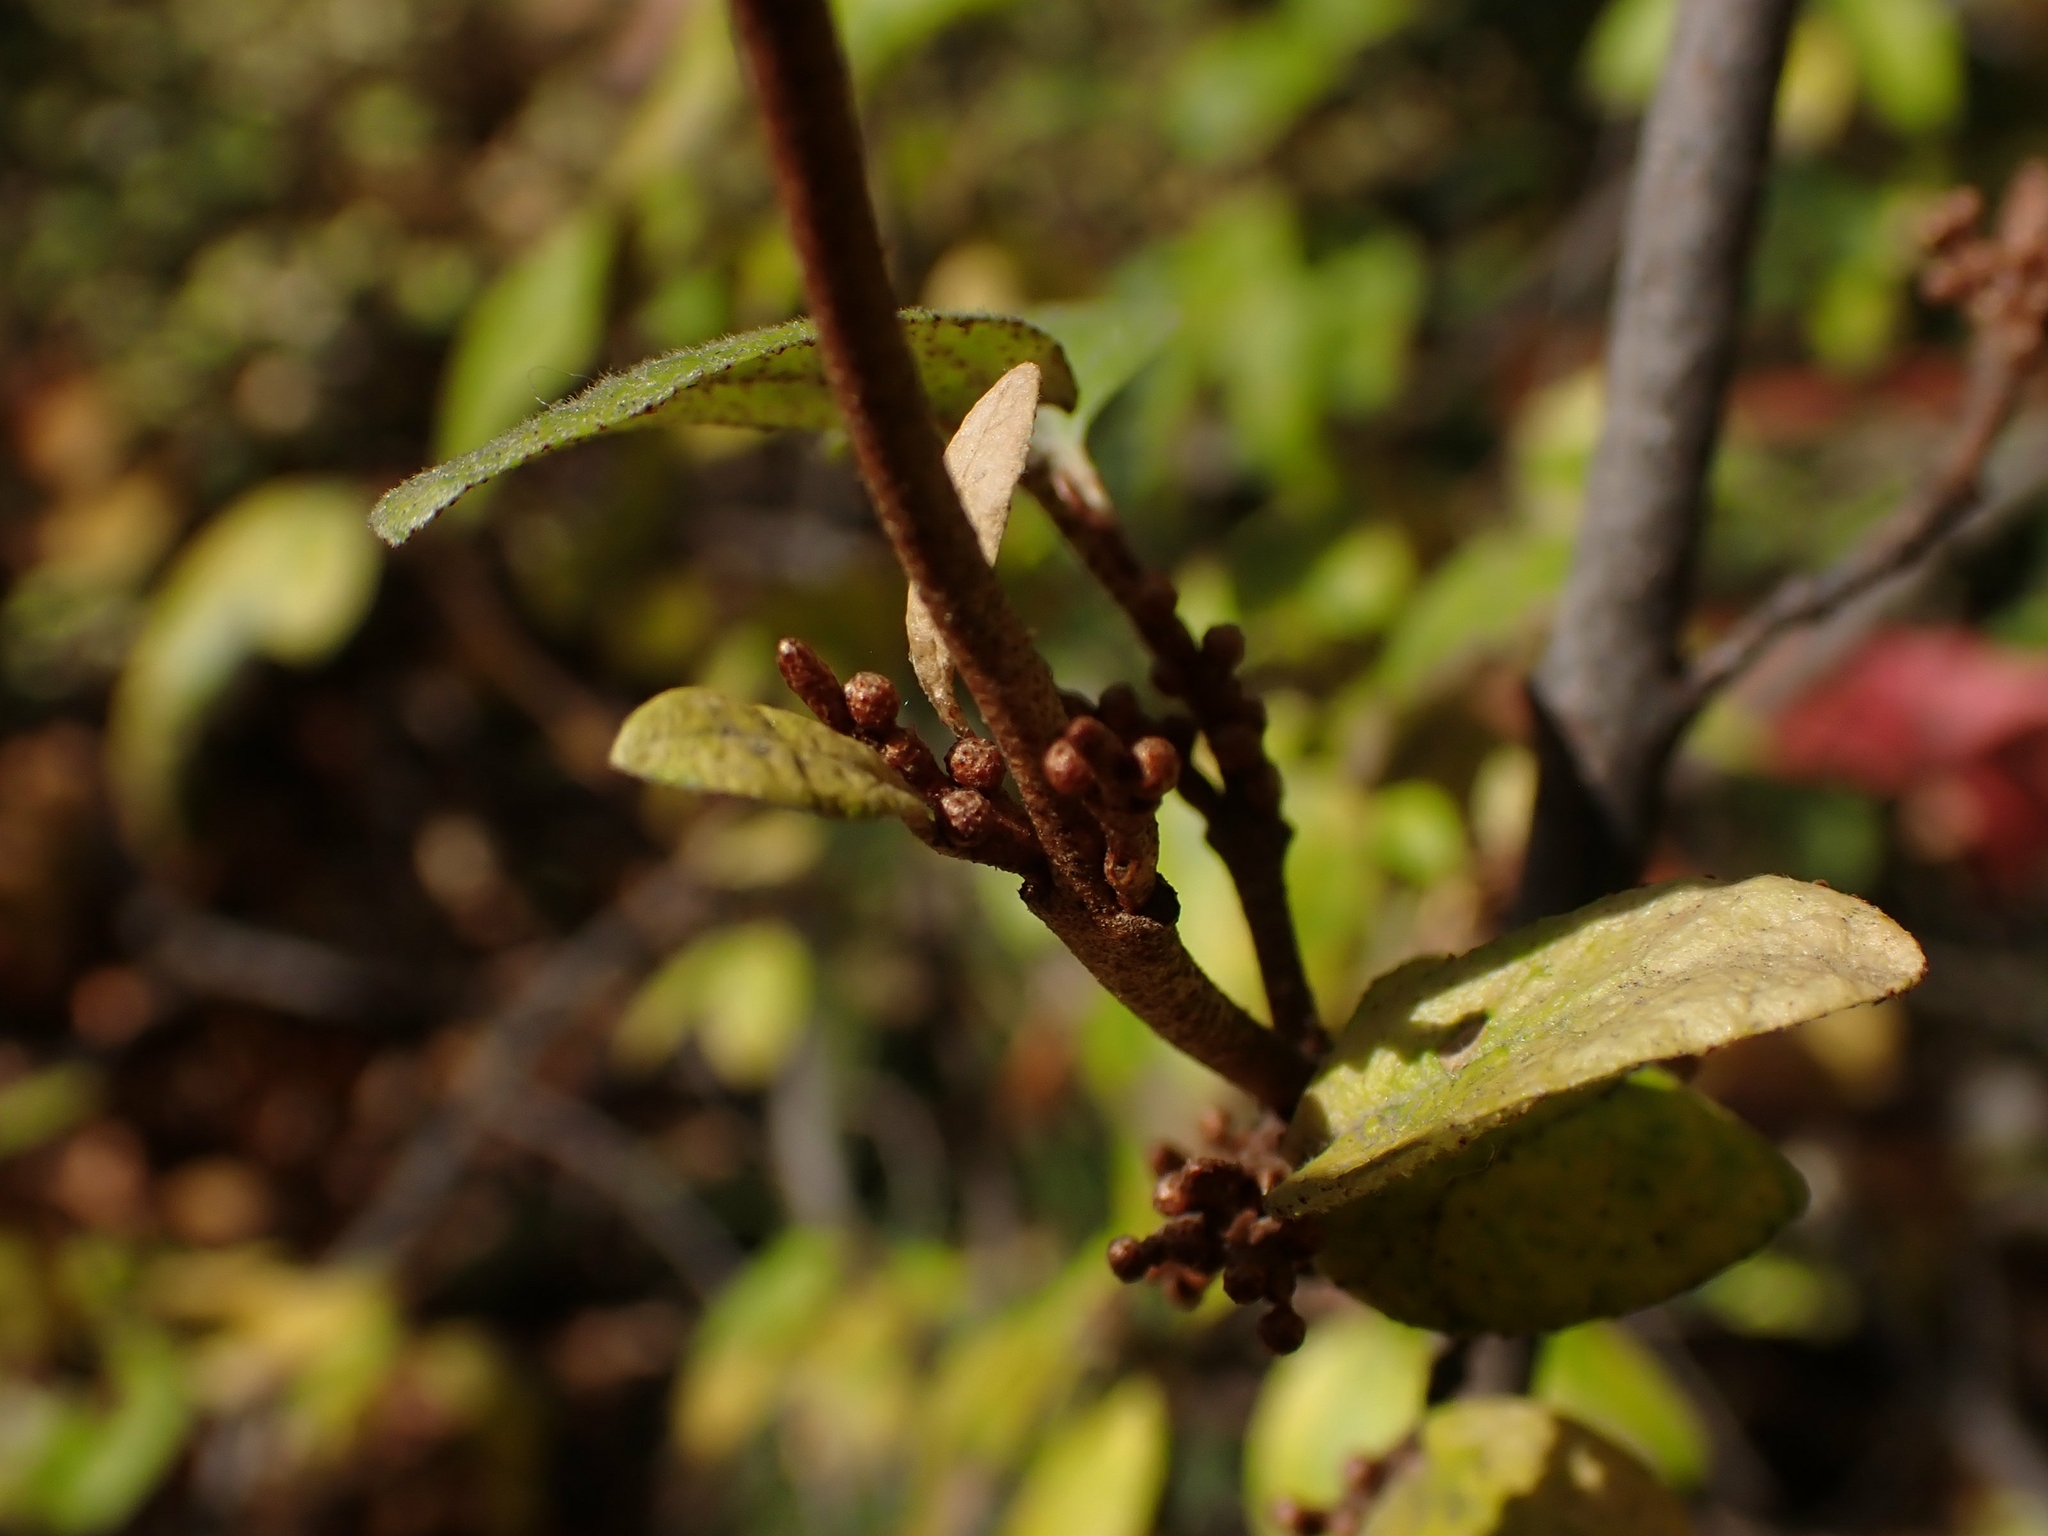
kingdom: Plantae
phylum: Tracheophyta
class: Magnoliopsida
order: Rosales
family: Elaeagnaceae
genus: Shepherdia
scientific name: Shepherdia canadensis
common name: Soapberry
